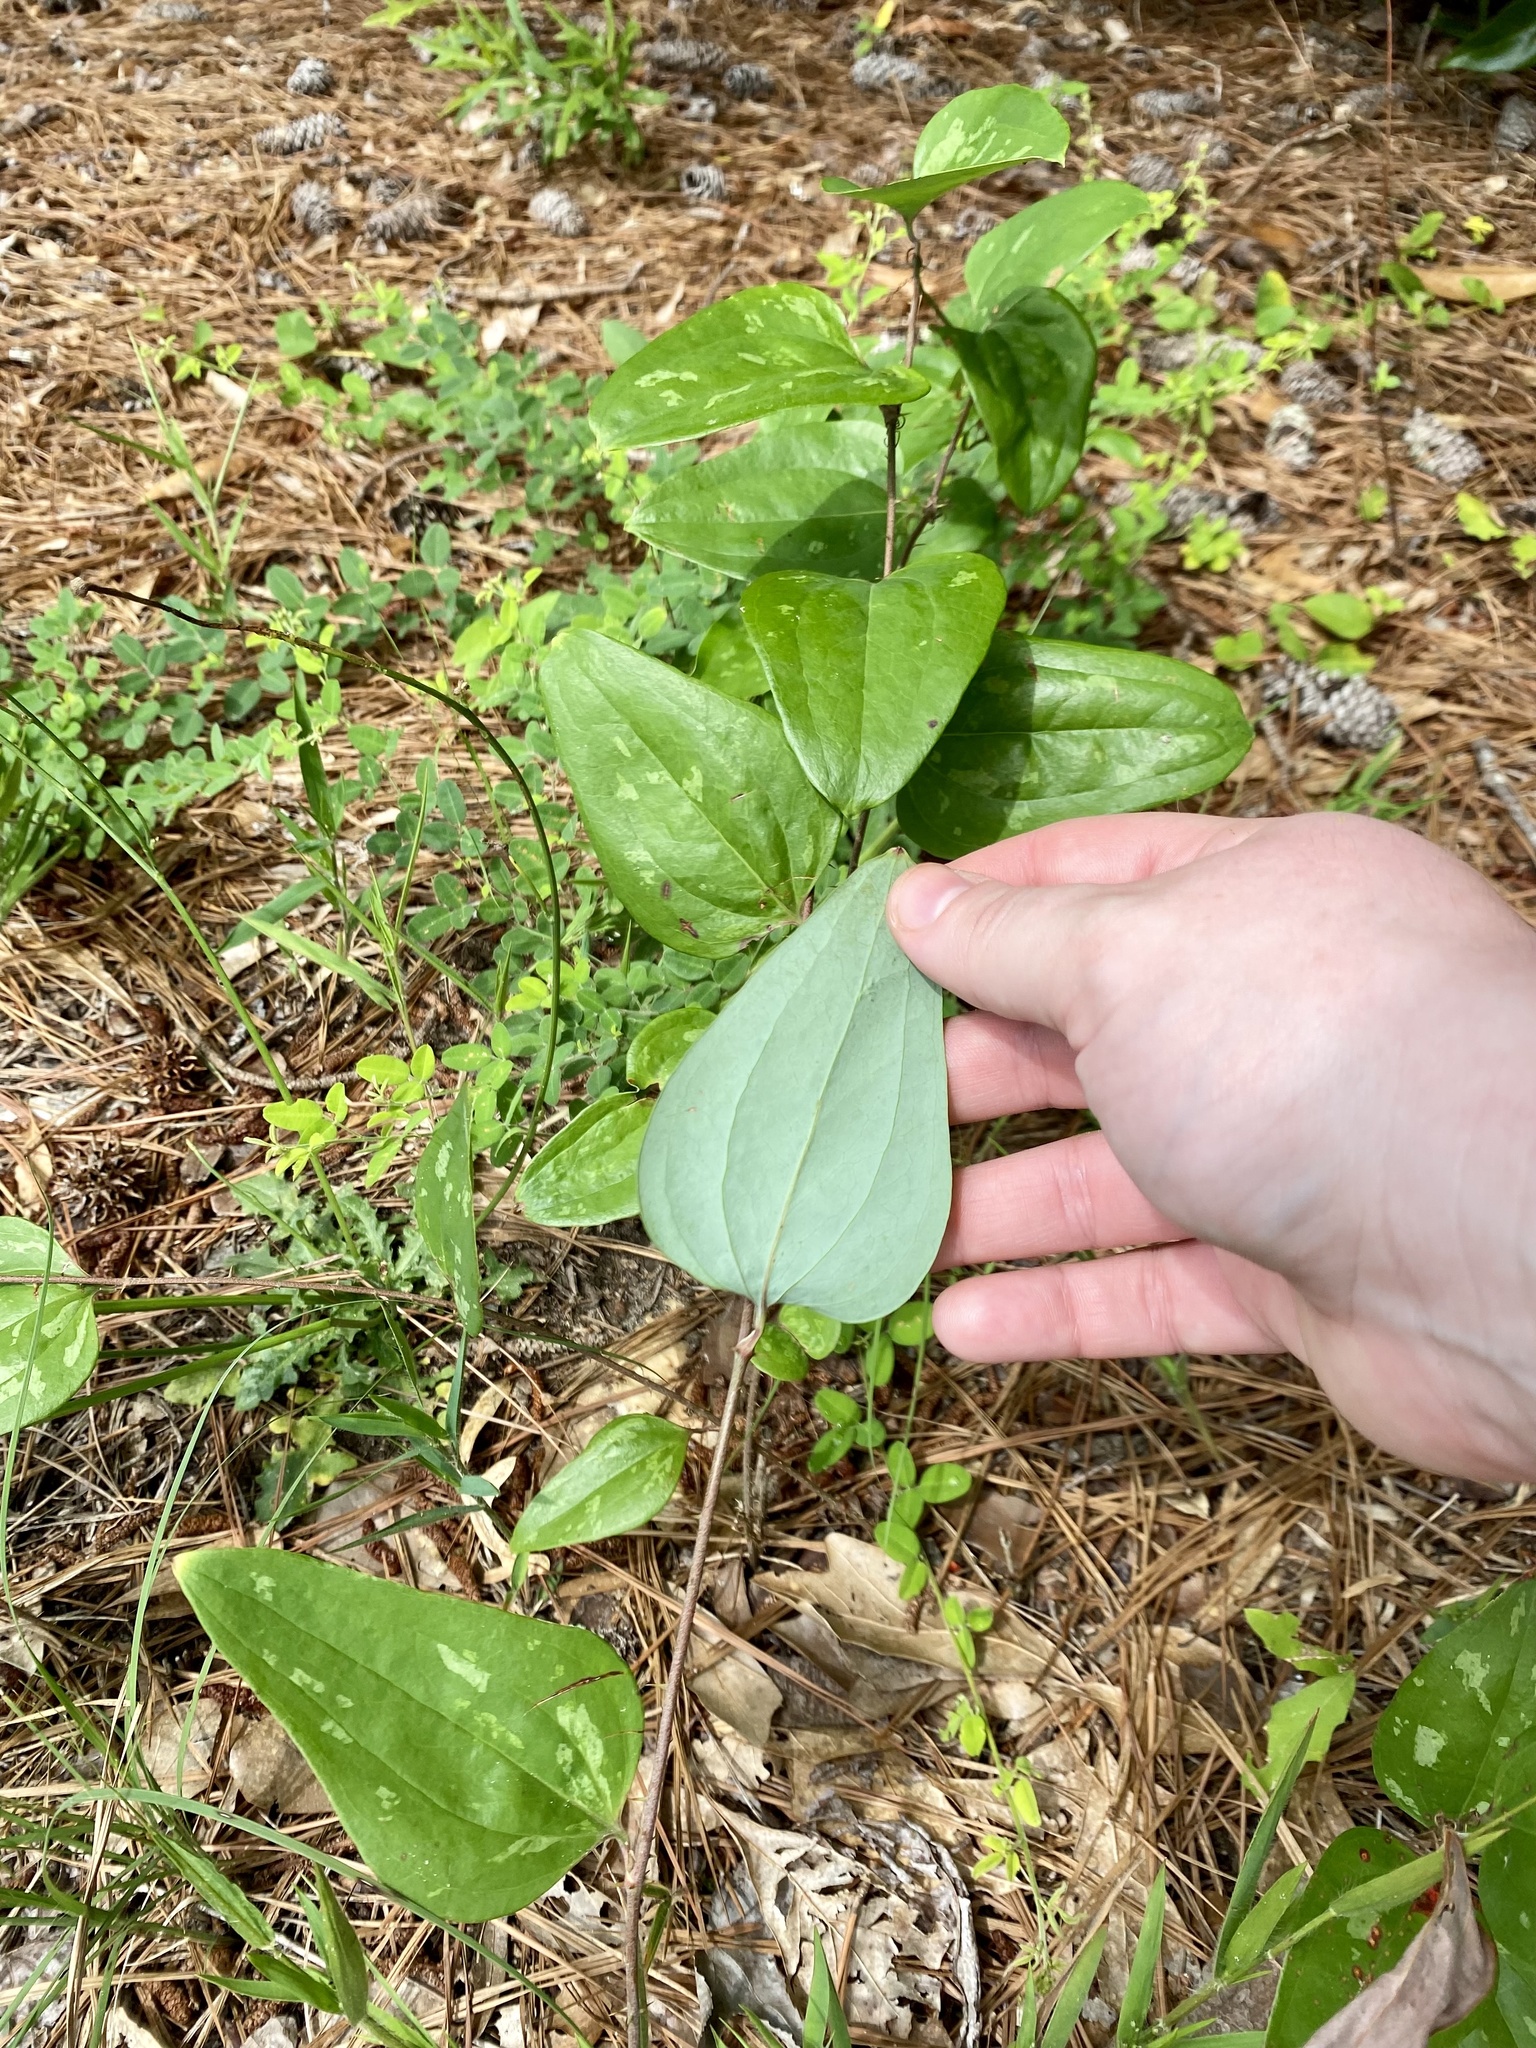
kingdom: Plantae
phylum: Tracheophyta
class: Liliopsida
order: Liliales
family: Smilacaceae
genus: Smilax
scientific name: Smilax glauca
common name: Cat greenbrier
